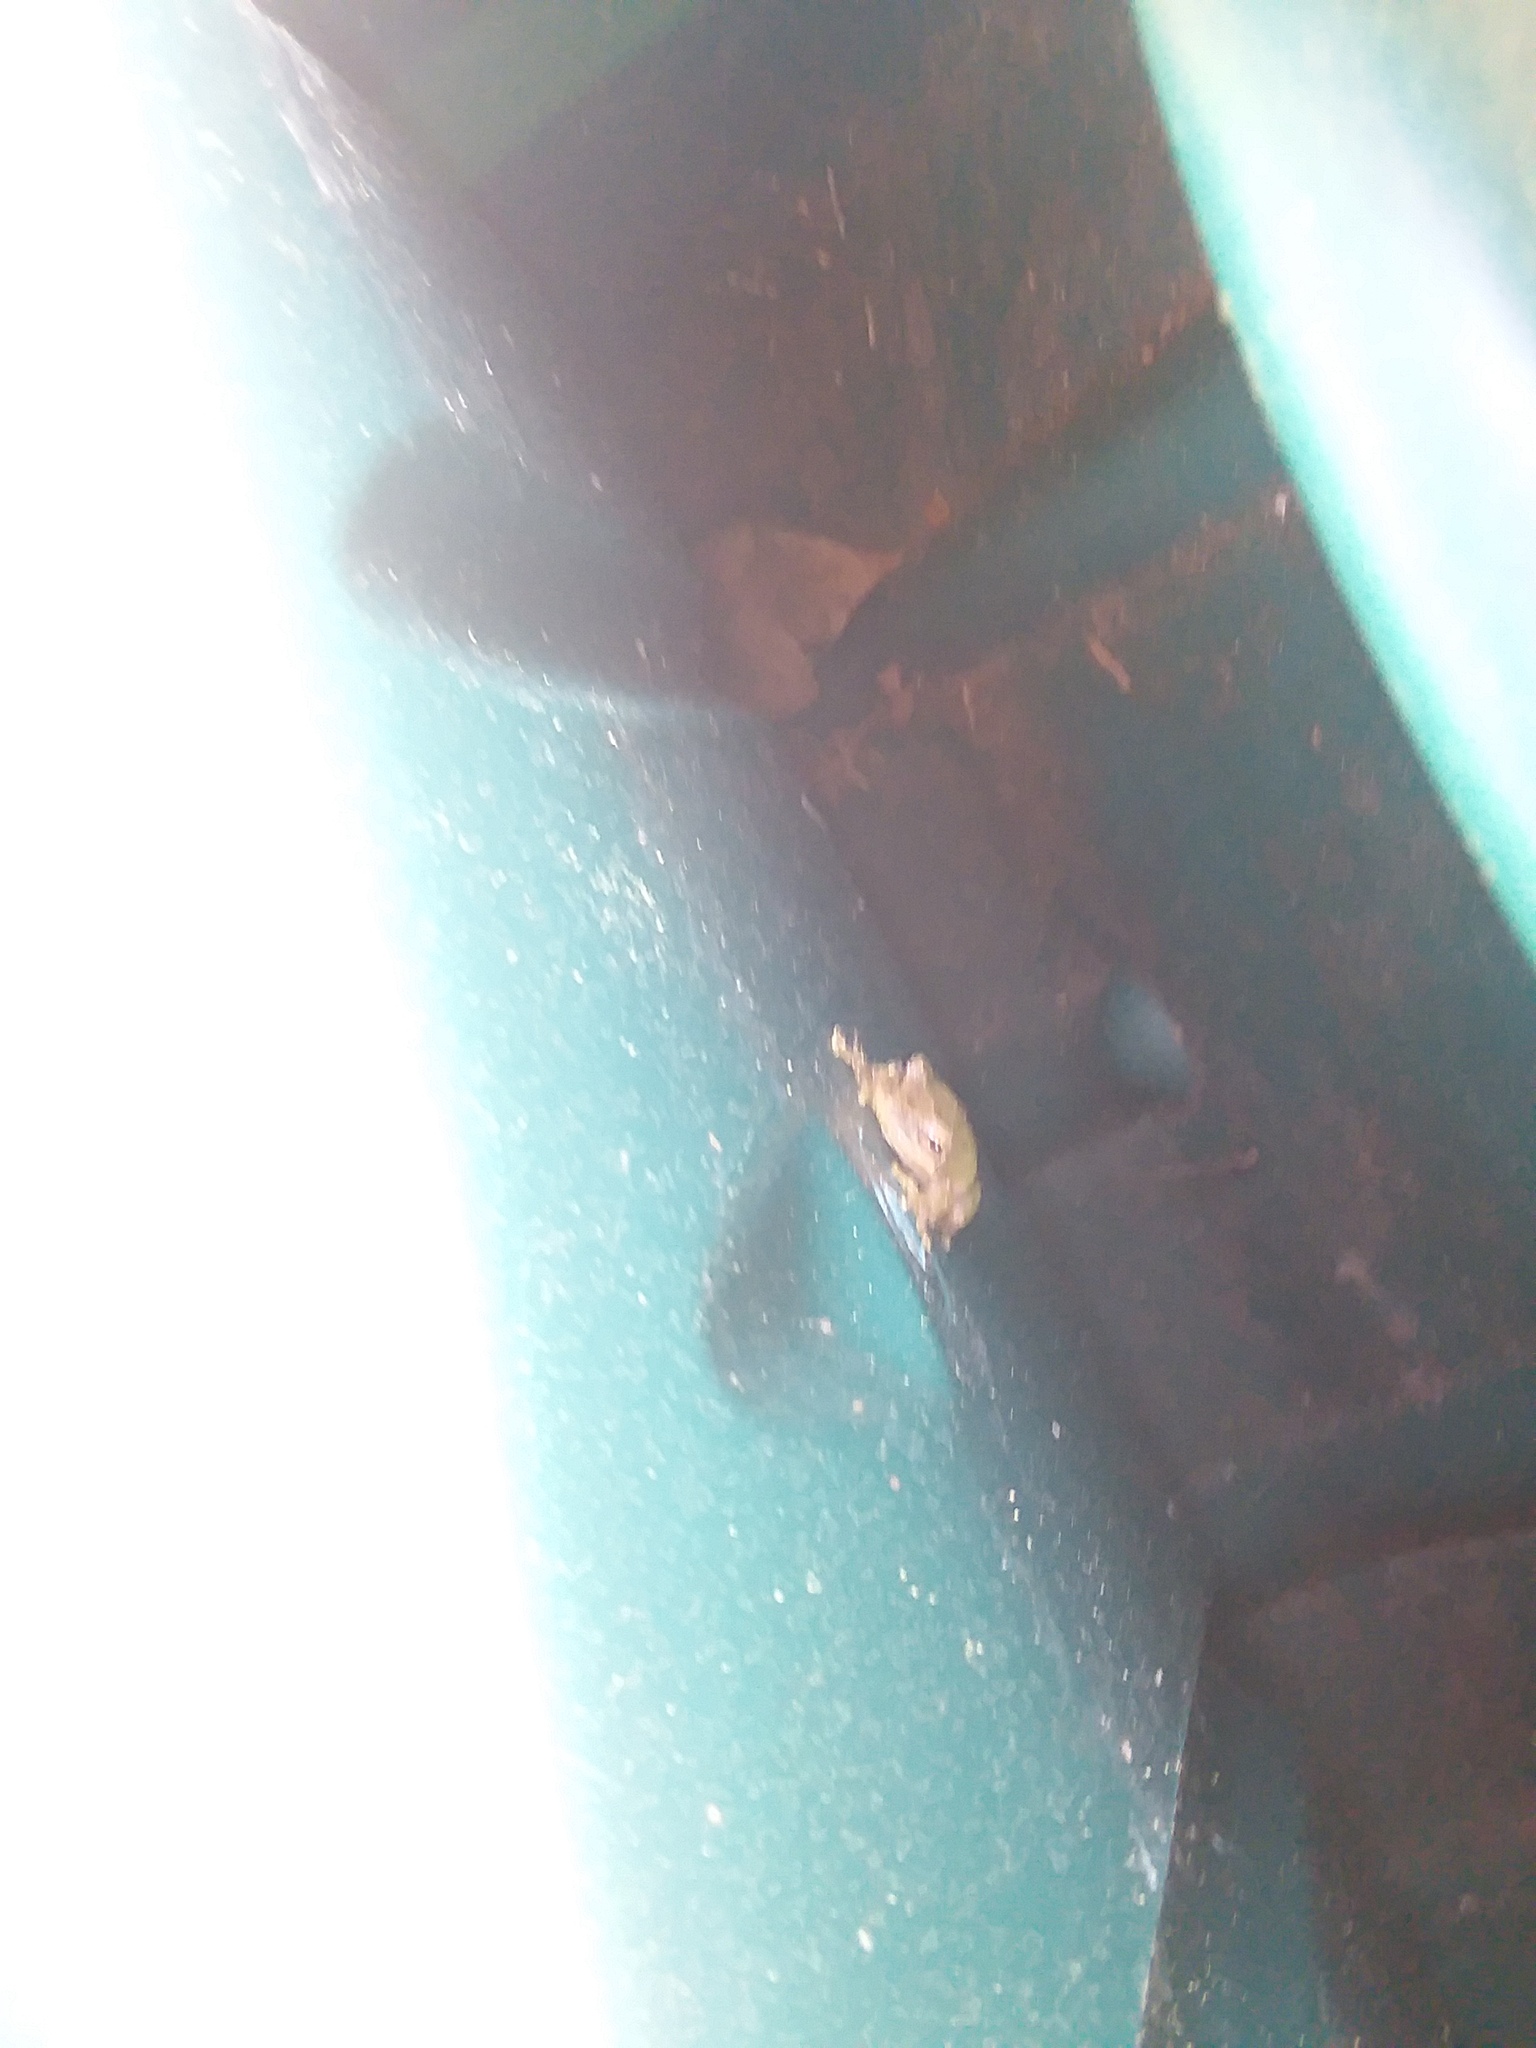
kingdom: Animalia
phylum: Chordata
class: Amphibia
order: Anura
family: Hylidae
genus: Dryophytes
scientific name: Dryophytes squirellus
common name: Squirrel treefrog
